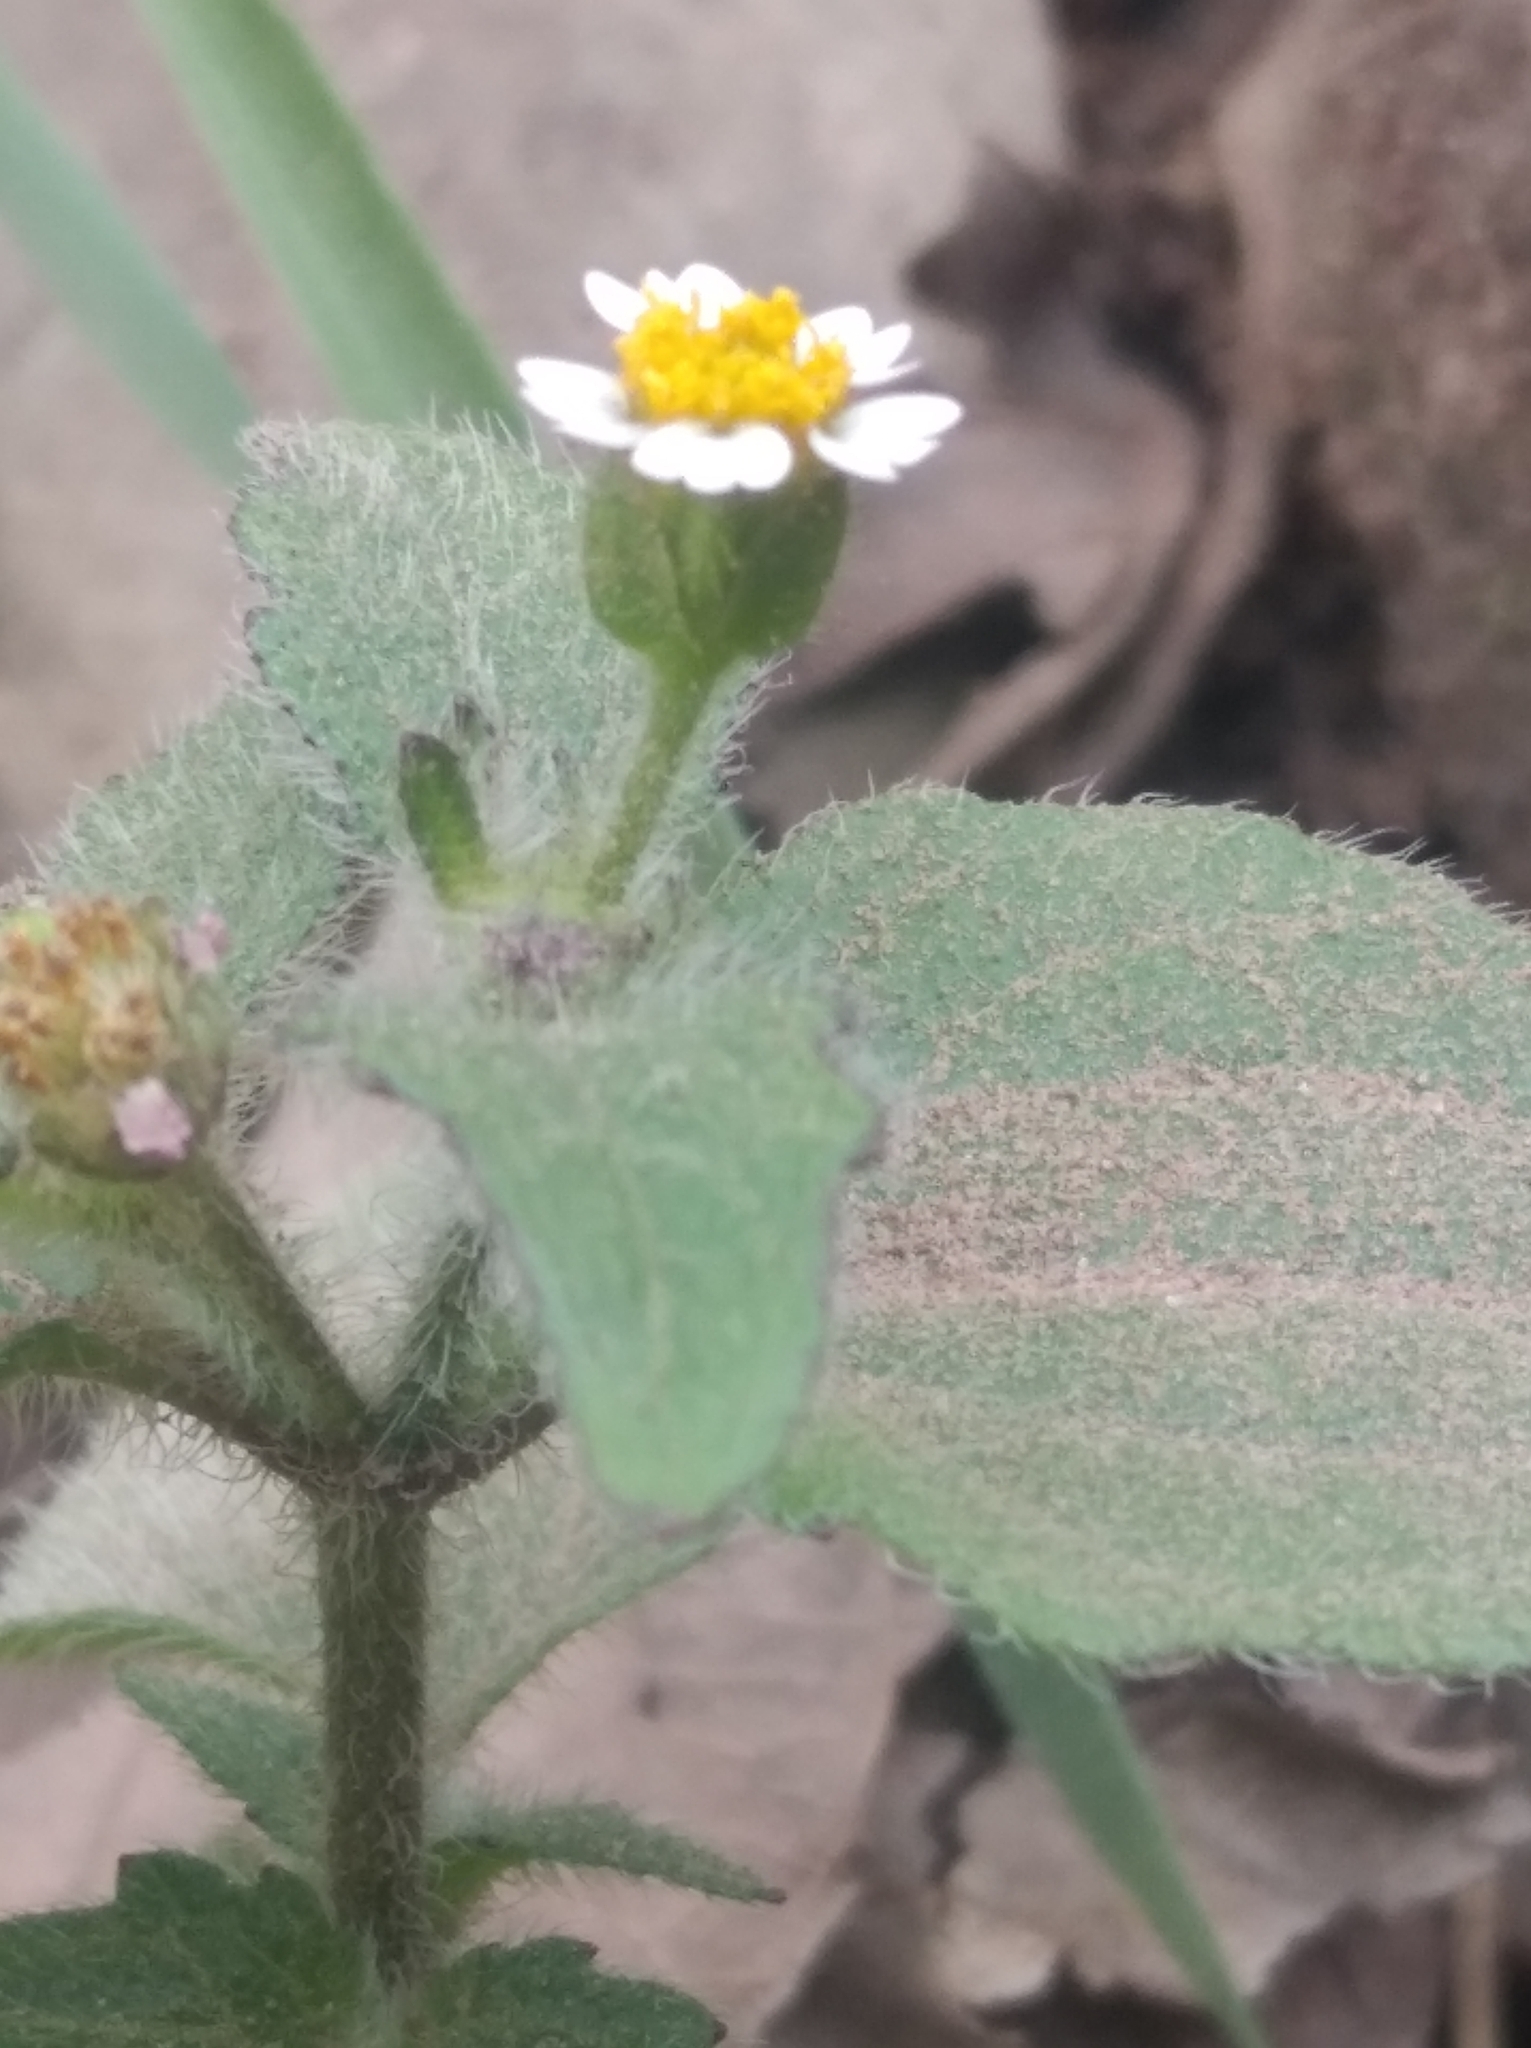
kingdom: Plantae
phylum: Tracheophyta
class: Magnoliopsida
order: Asterales
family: Asteraceae
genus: Galinsoga
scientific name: Galinsoga quadriradiata
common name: Shaggy soldier
